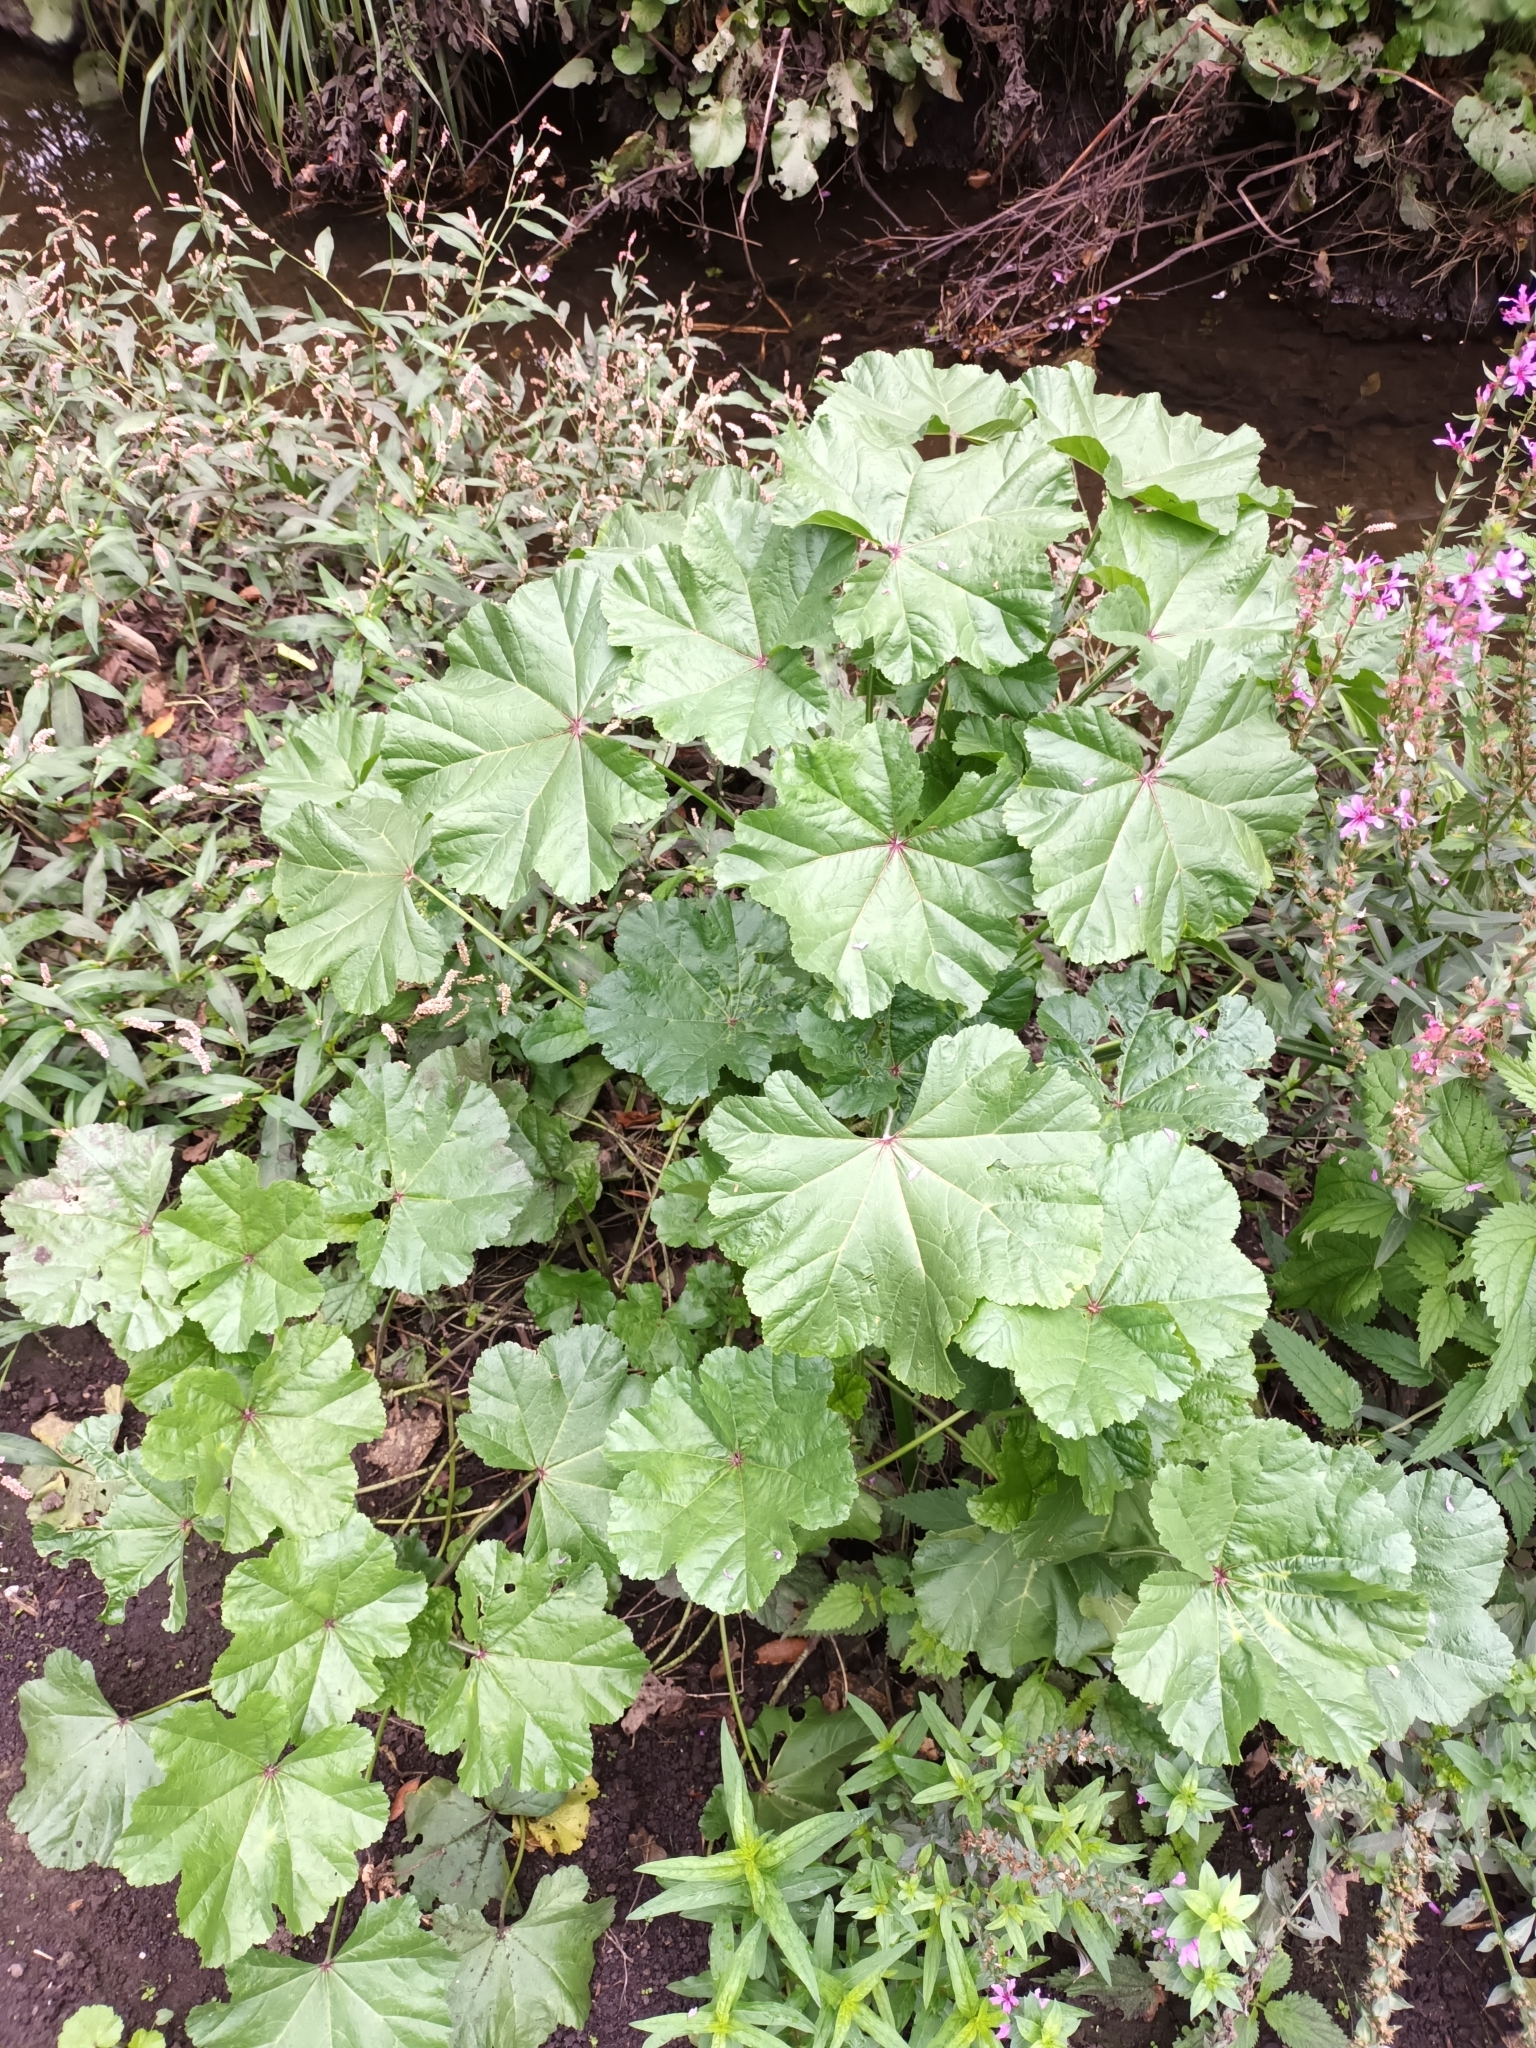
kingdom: Plantae
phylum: Tracheophyta
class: Magnoliopsida
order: Malvales
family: Malvaceae
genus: Malva
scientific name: Malva sylvestris
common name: Common mallow
